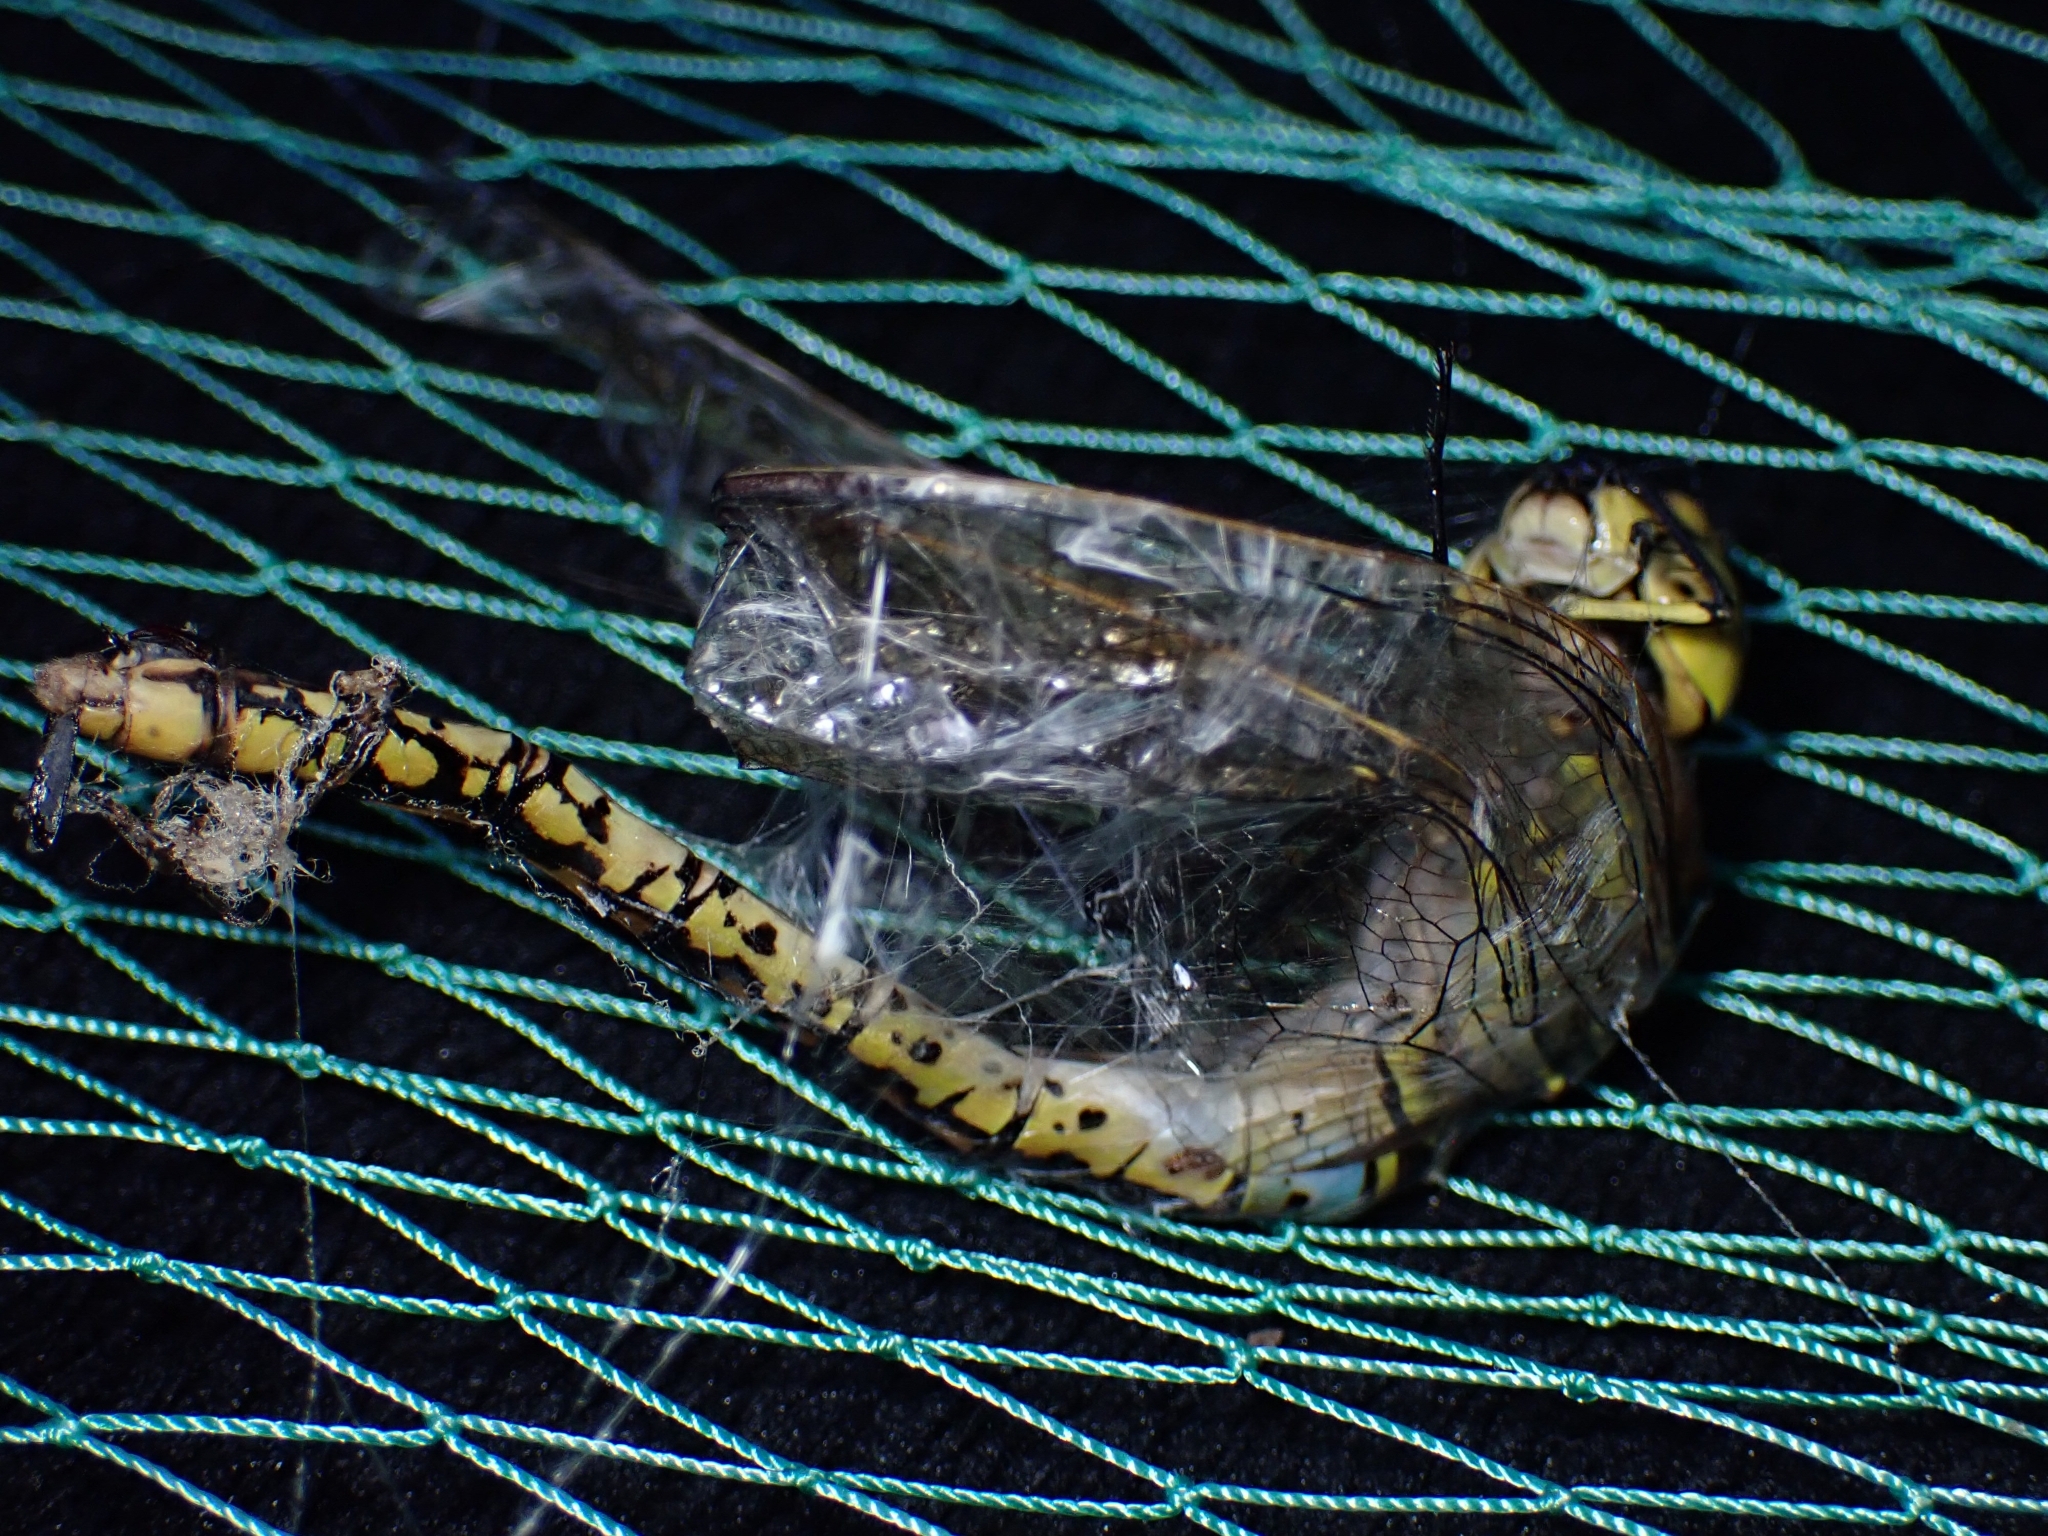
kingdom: Animalia
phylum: Arthropoda
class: Insecta
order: Odonata
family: Aeshnidae
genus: Anax
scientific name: Anax papuensis
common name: Australian emperor
